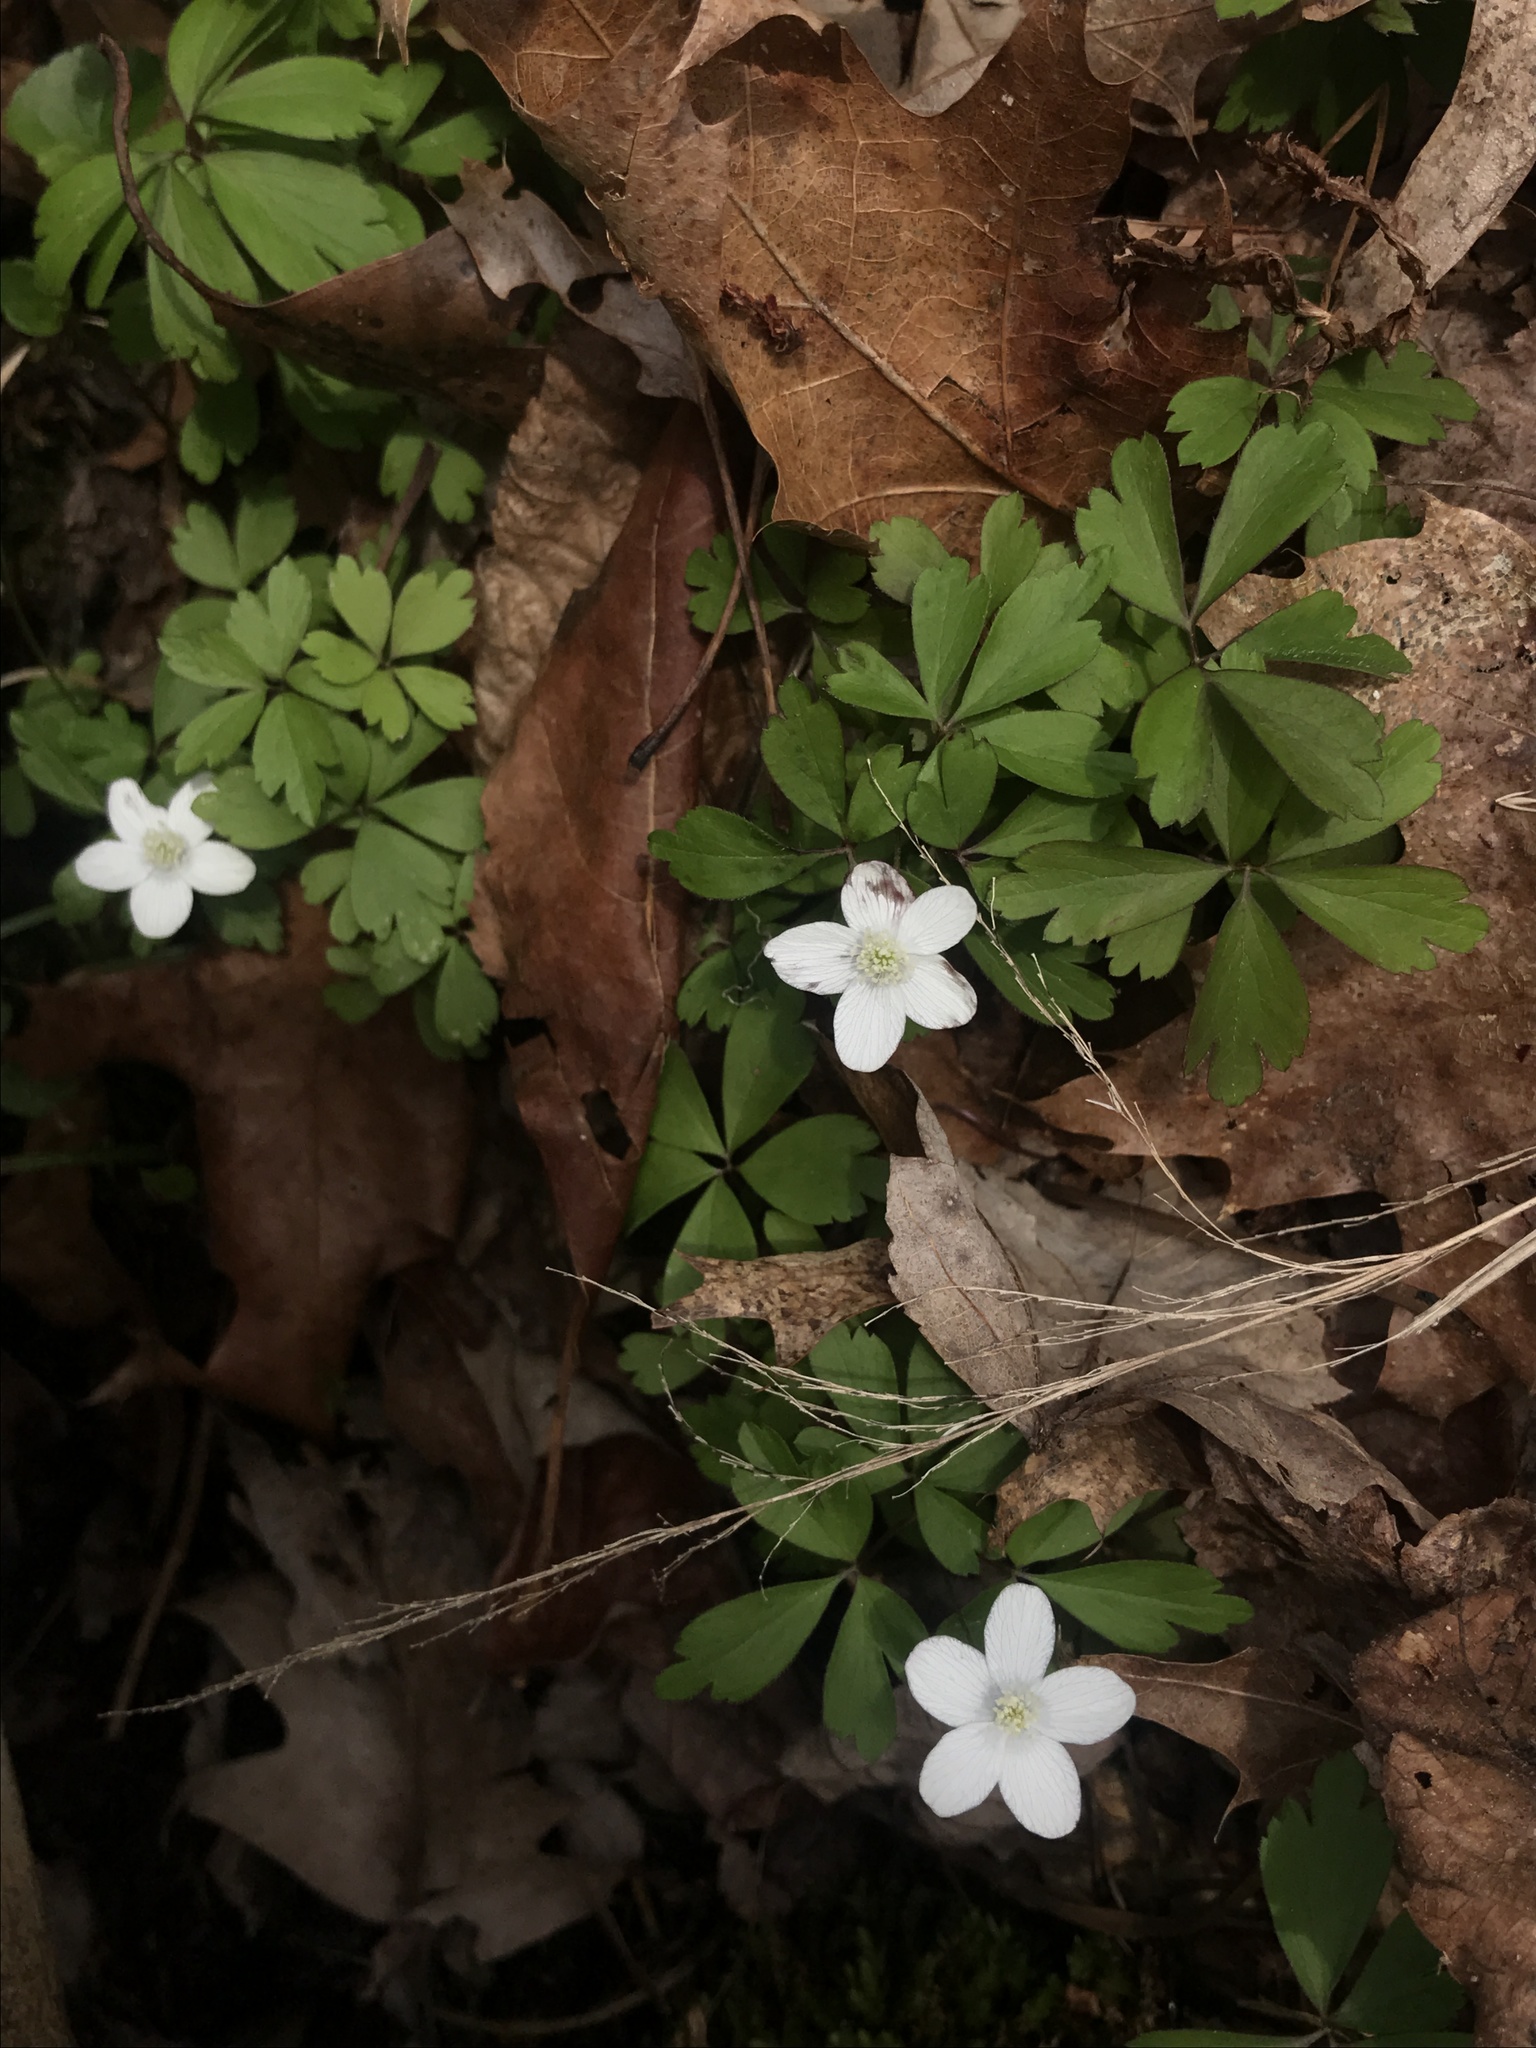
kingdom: Plantae
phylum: Tracheophyta
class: Magnoliopsida
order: Ranunculales
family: Ranunculaceae
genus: Anemone
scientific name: Anemone quinquefolia
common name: Wood anemone
